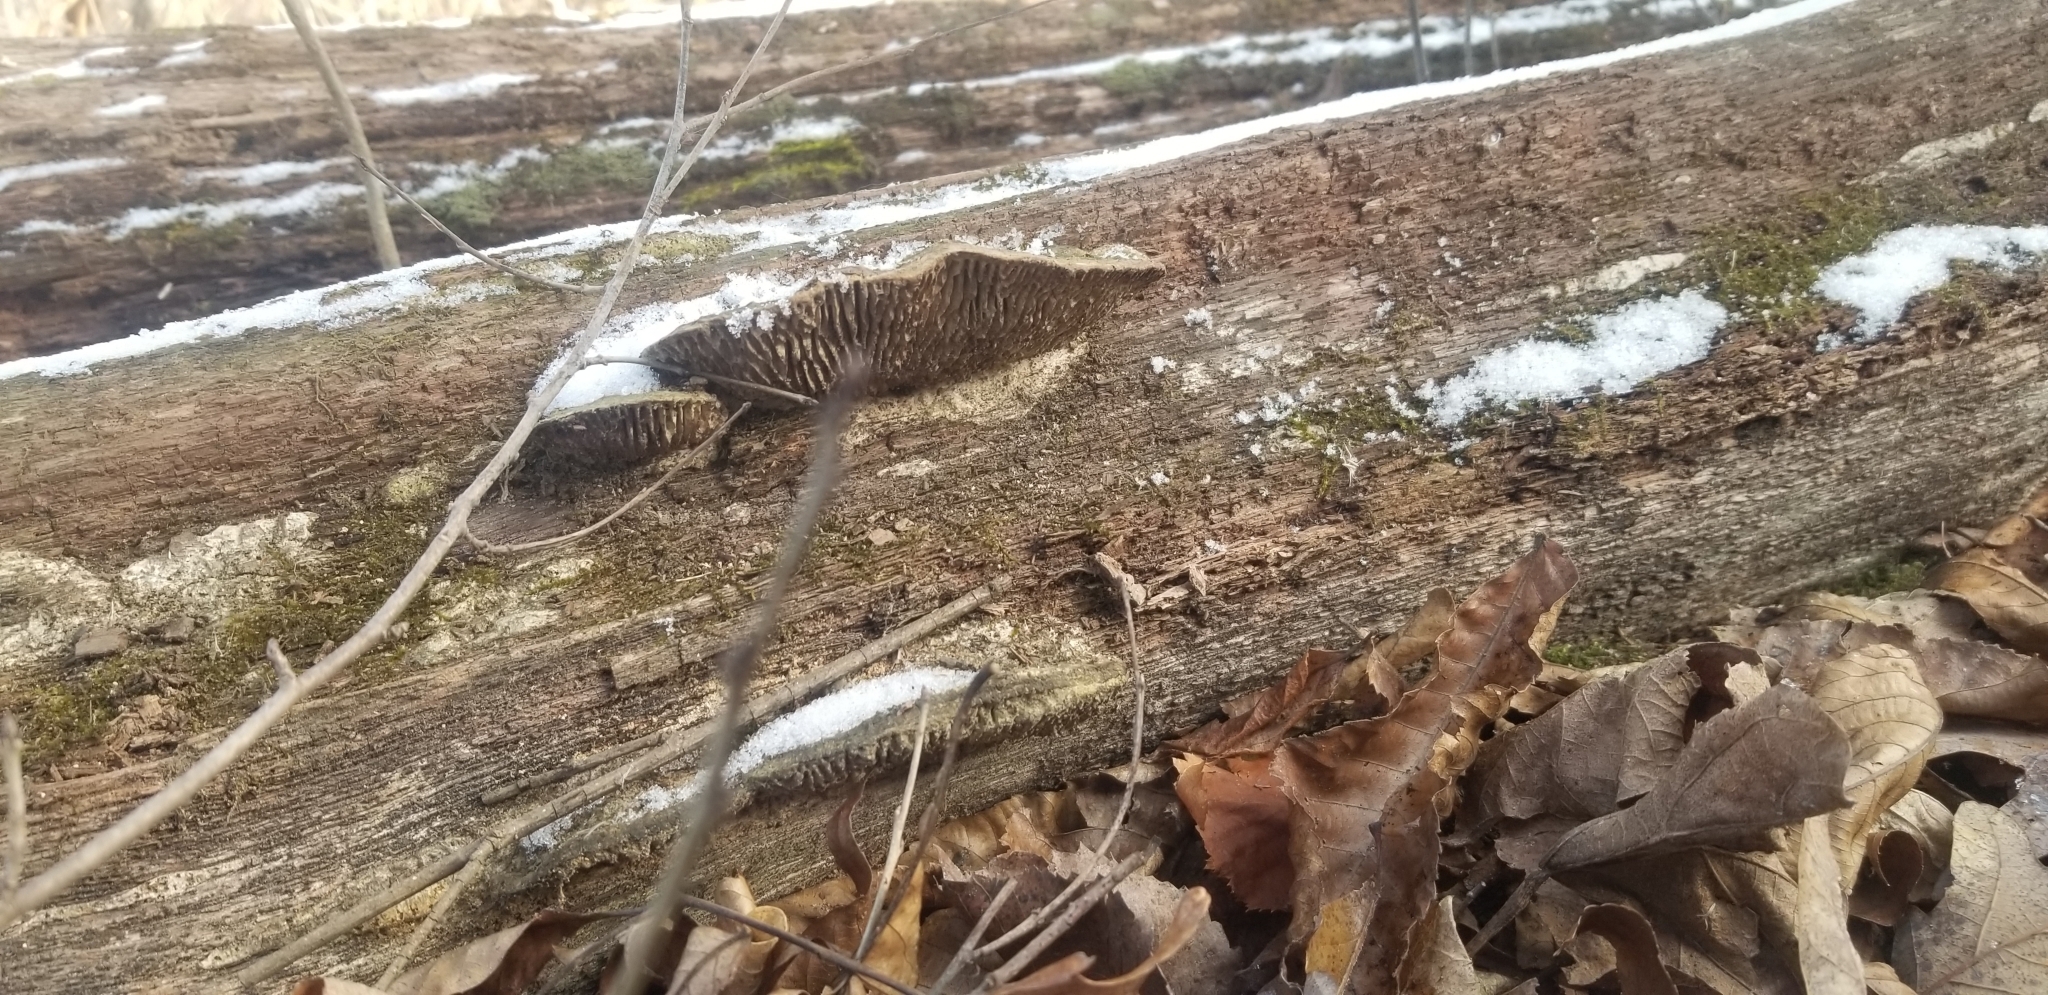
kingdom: Fungi
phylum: Basidiomycota
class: Agaricomycetes
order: Polyporales
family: Fomitopsidaceae
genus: Fomitopsis
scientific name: Fomitopsis
